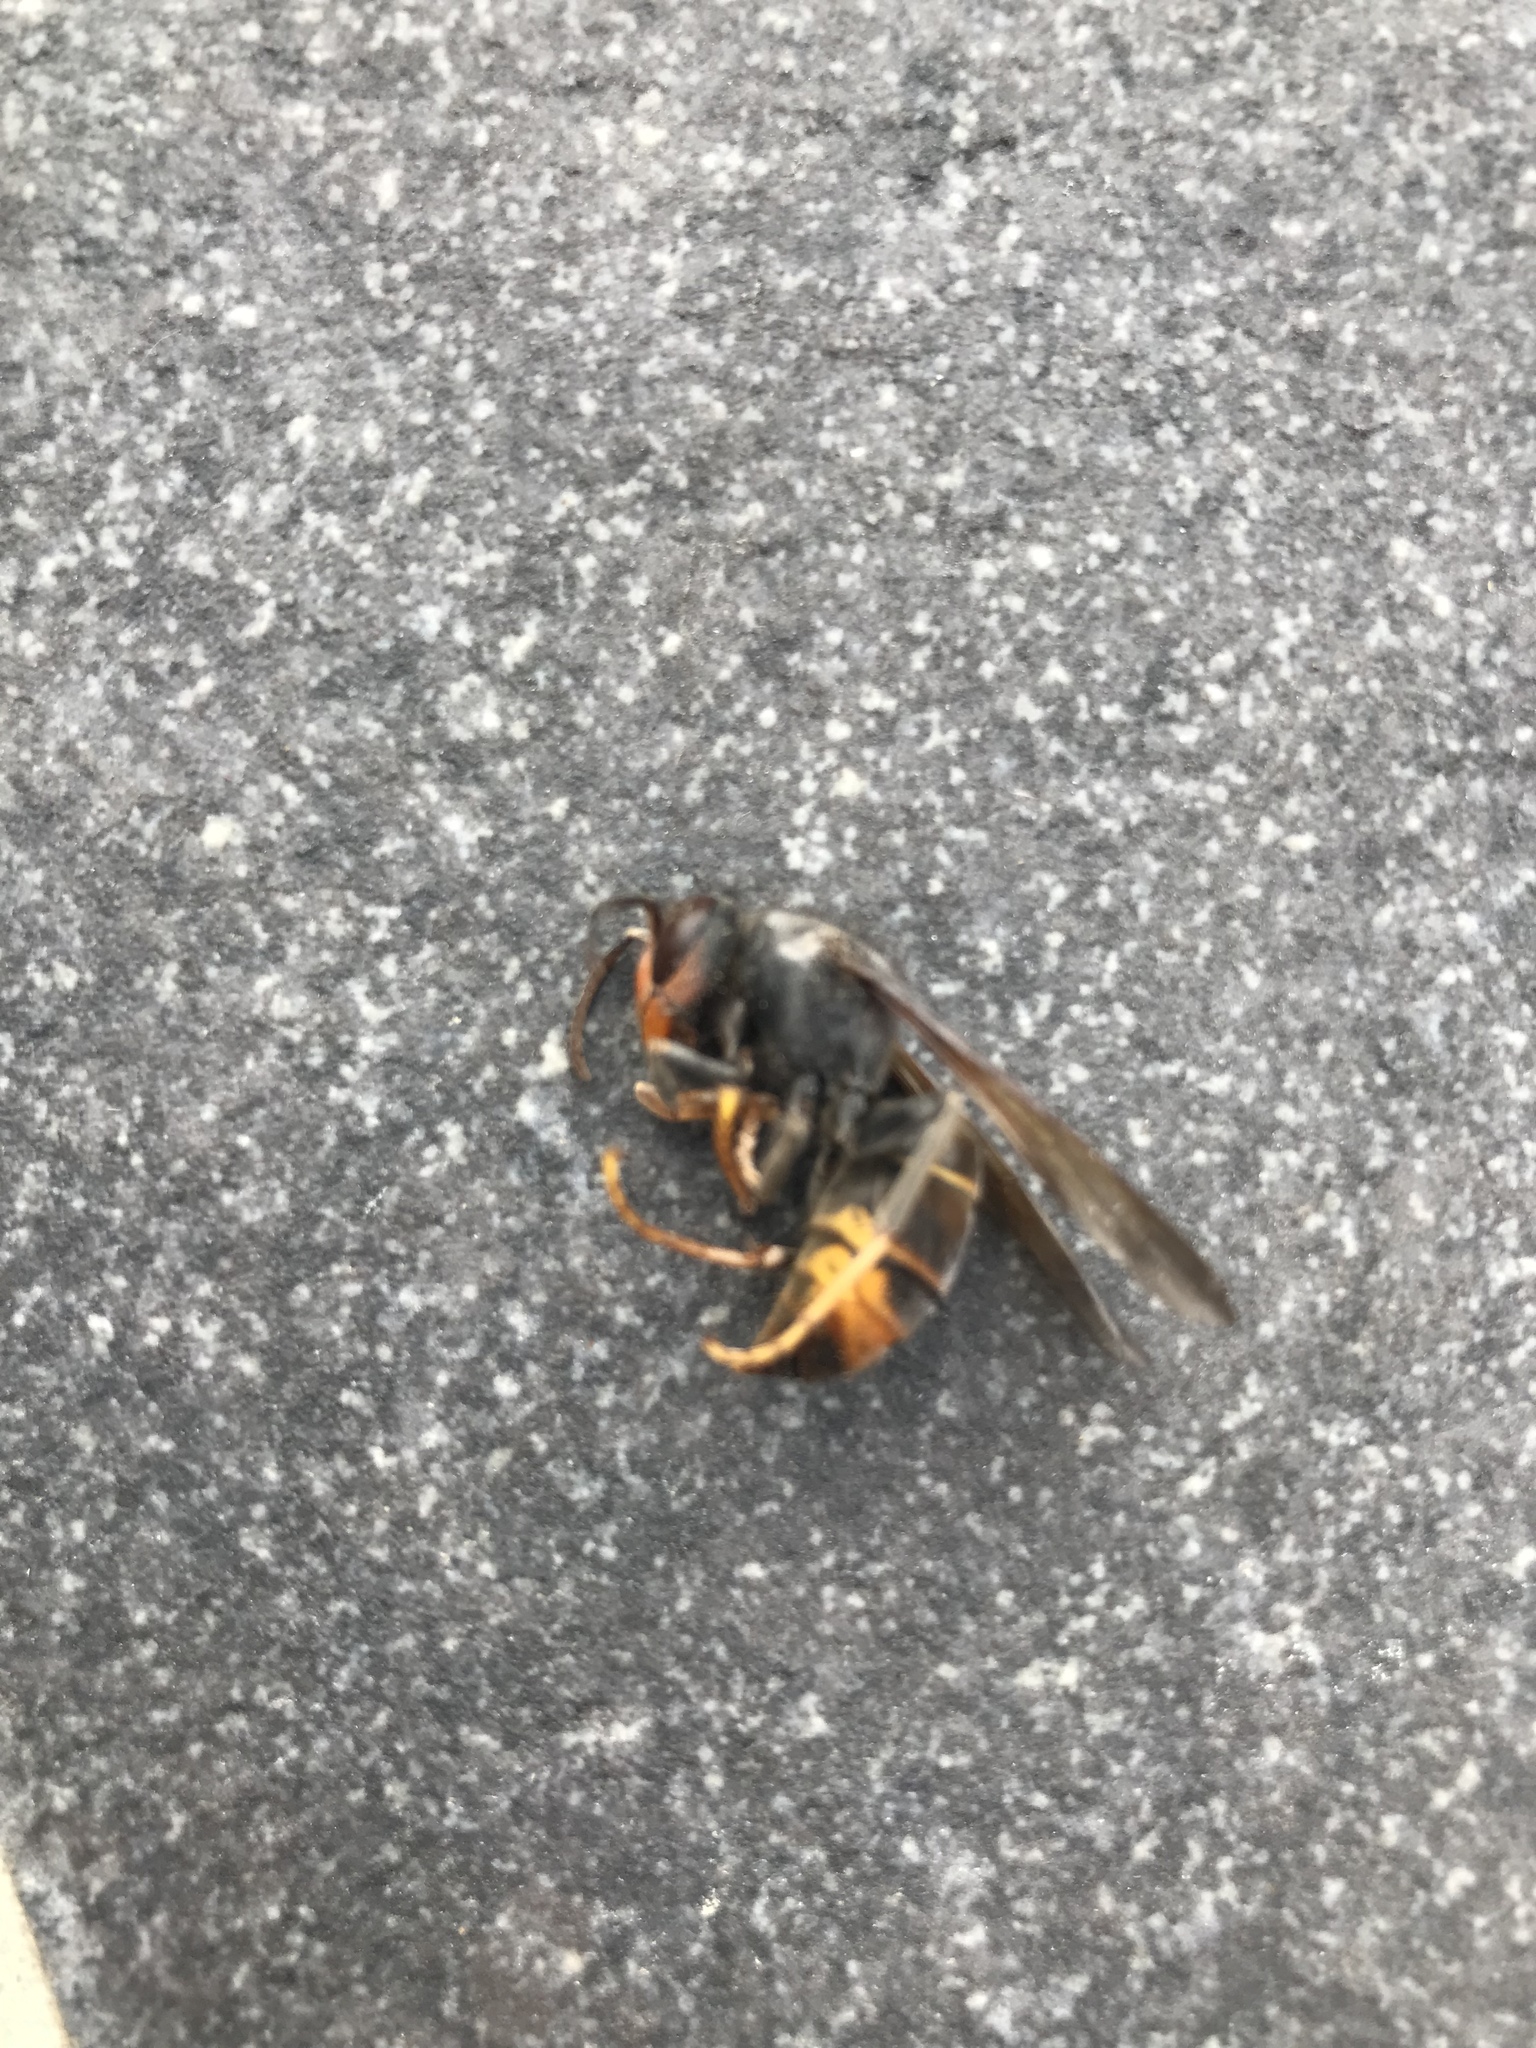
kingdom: Animalia
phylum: Arthropoda
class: Insecta
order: Hymenoptera
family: Vespidae
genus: Vespa
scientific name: Vespa velutina
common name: Asian hornet
